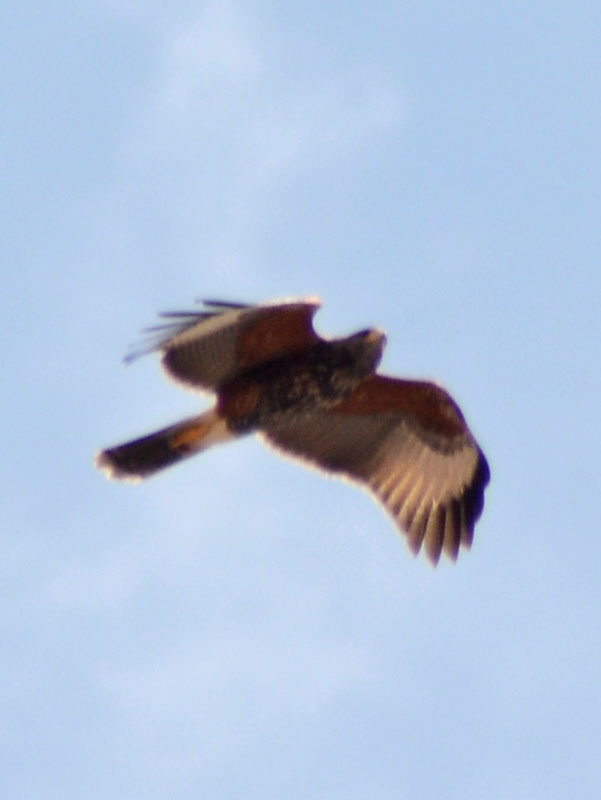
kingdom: Animalia
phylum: Chordata
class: Aves
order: Accipitriformes
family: Accipitridae
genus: Parabuteo
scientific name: Parabuteo unicinctus
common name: Harris's hawk
